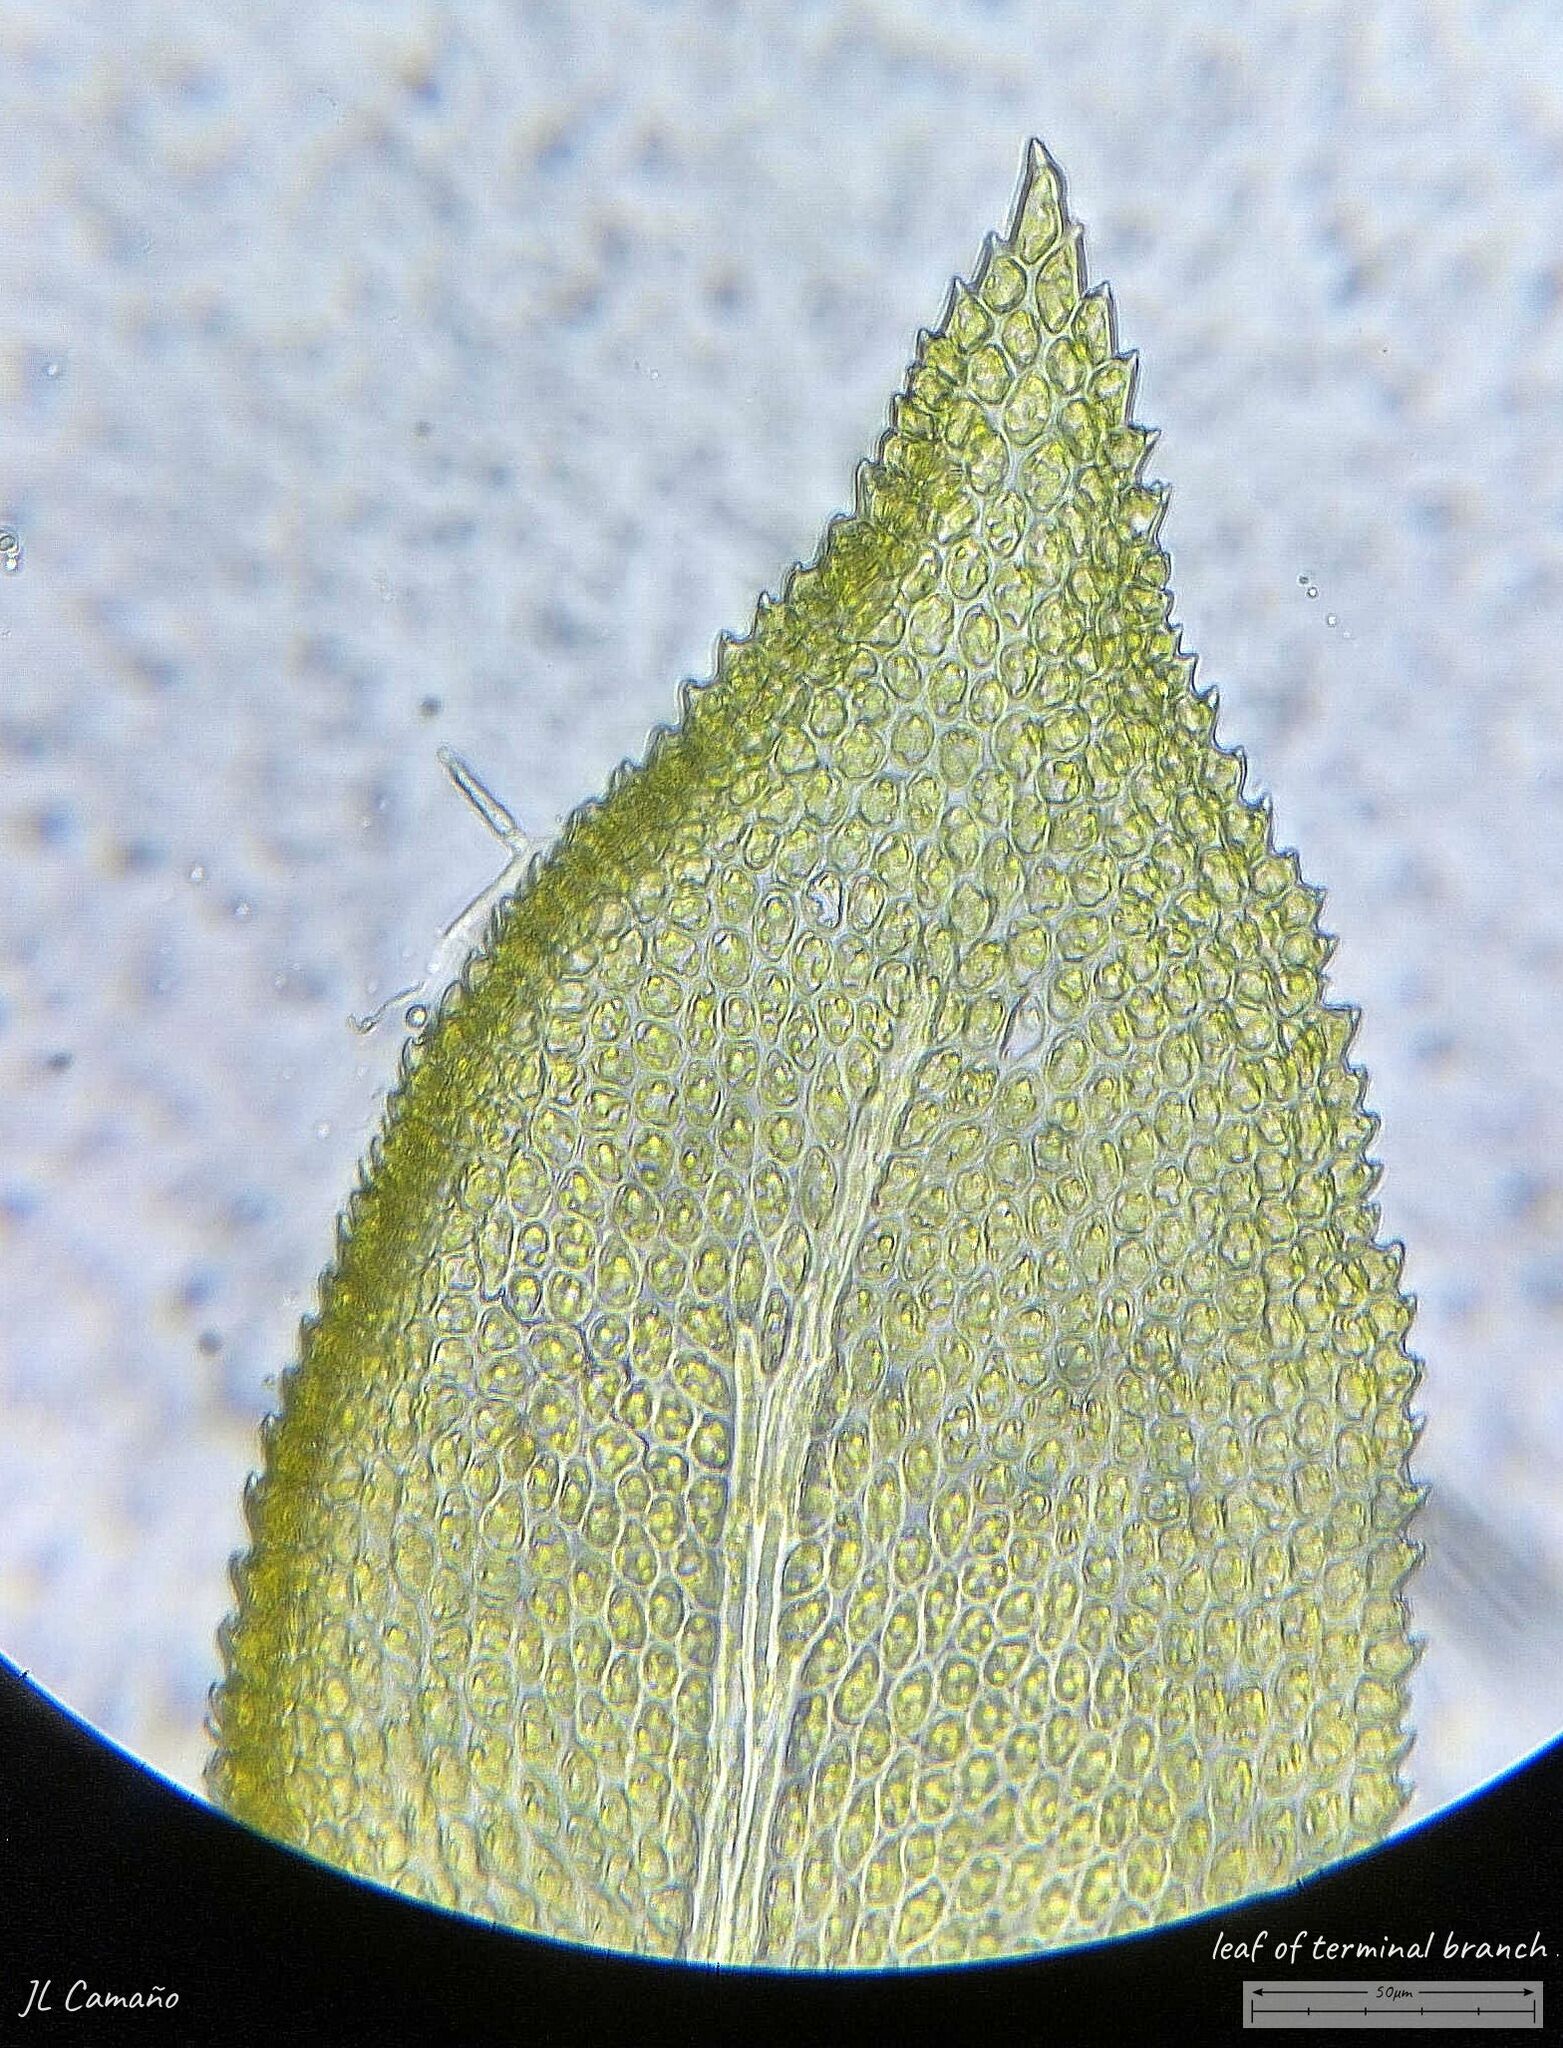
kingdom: Plantae
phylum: Bryophyta
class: Bryopsida
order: Hypnales
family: Thuidiaceae
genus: Thuidium
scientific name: Thuidium tamariscinum
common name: Common tamarisk-moss
